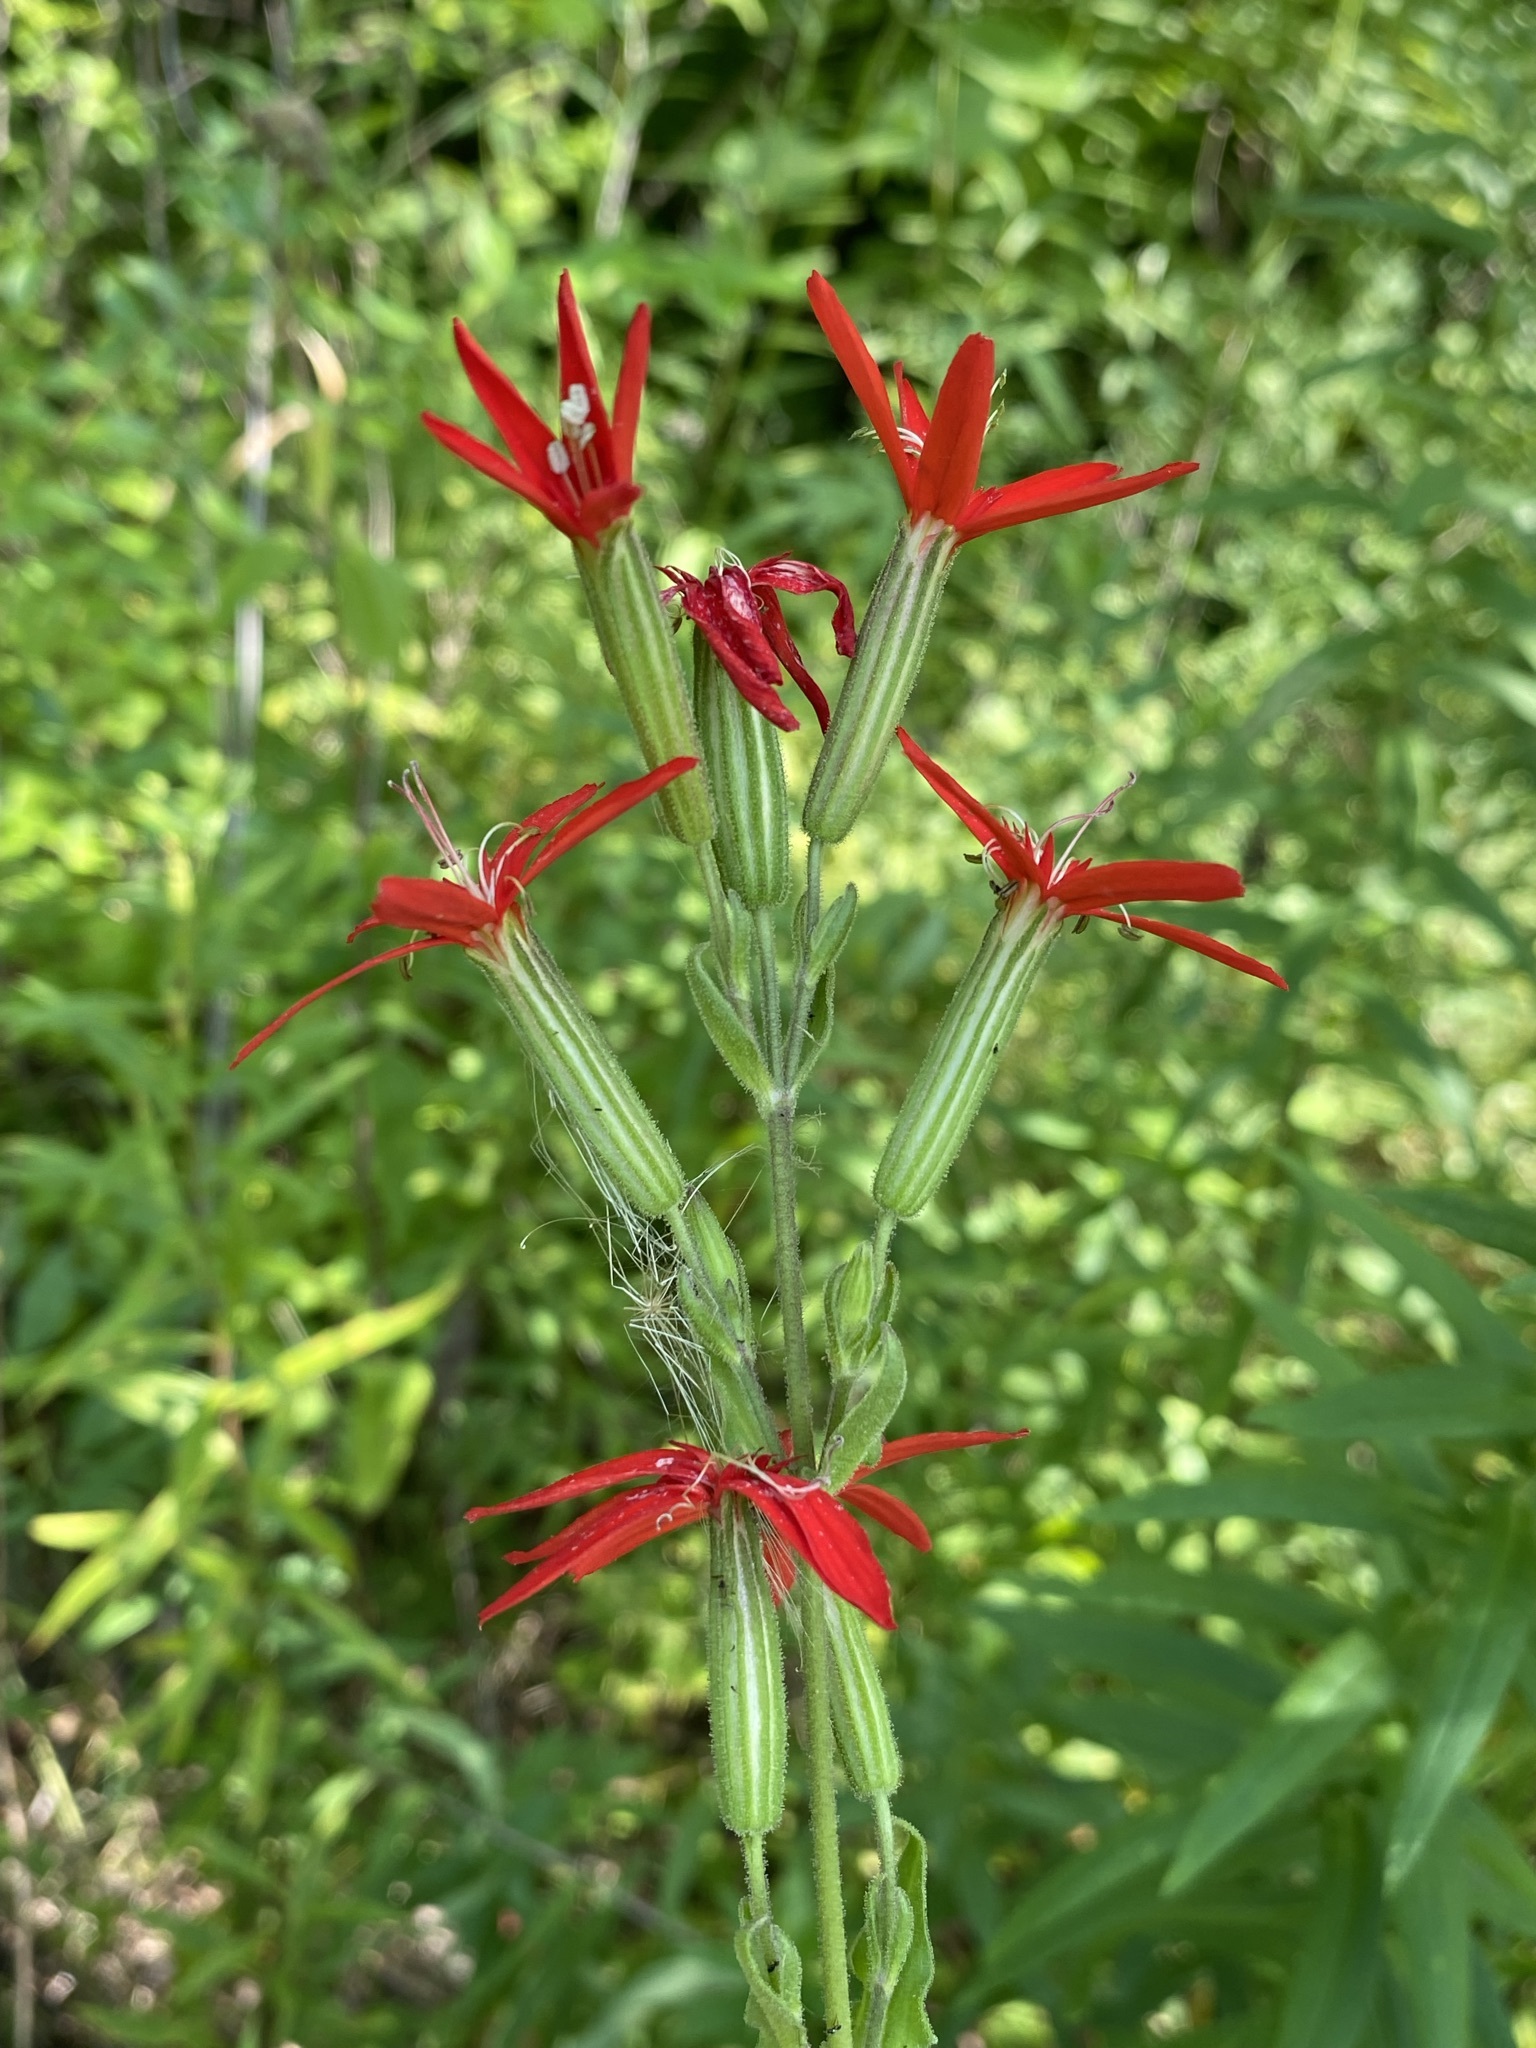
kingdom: Plantae
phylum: Tracheophyta
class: Magnoliopsida
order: Caryophyllales
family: Caryophyllaceae
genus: Silene
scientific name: Silene regia
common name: Royal catchfly
